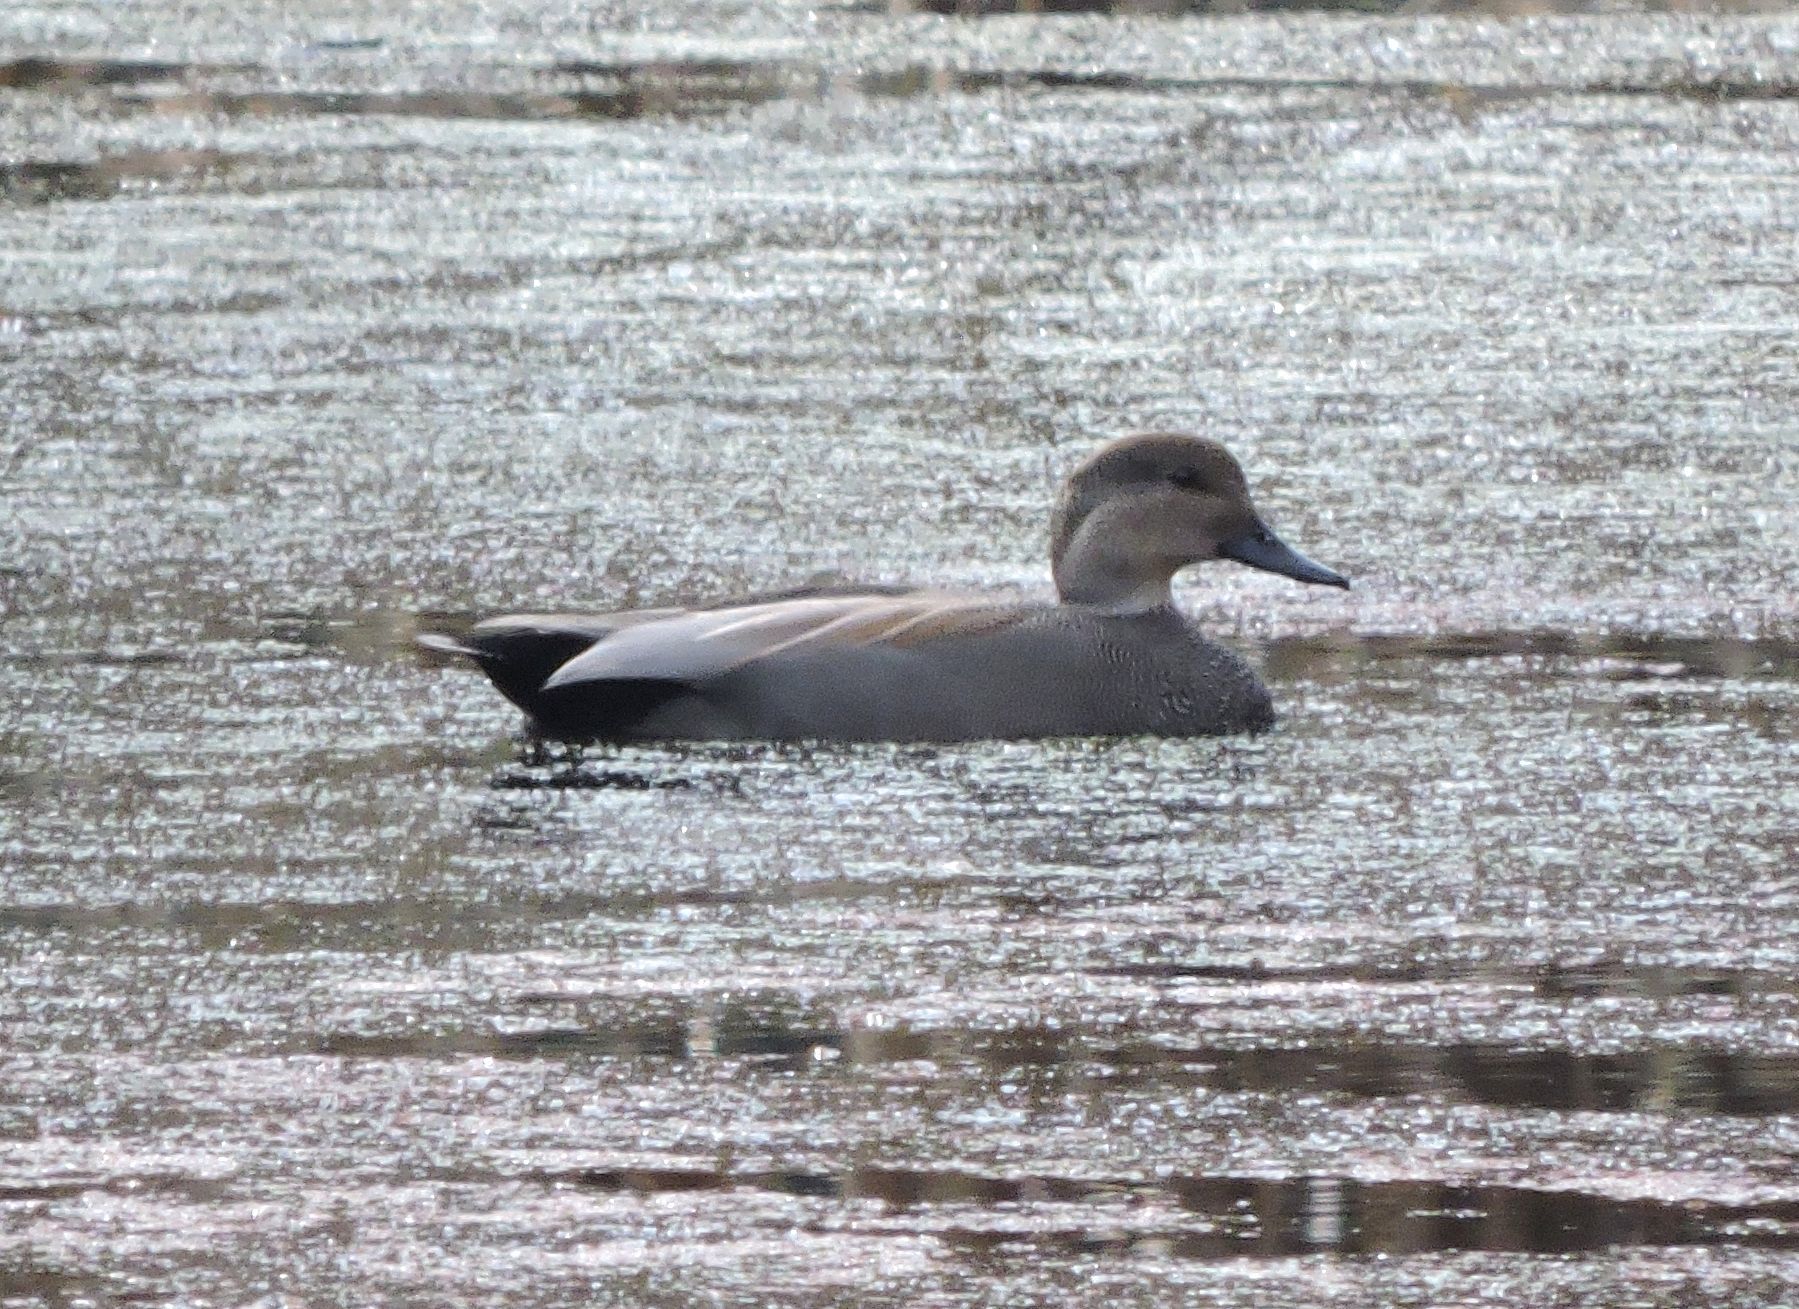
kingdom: Animalia
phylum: Chordata
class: Aves
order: Anseriformes
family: Anatidae
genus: Mareca
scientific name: Mareca strepera
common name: Gadwall
